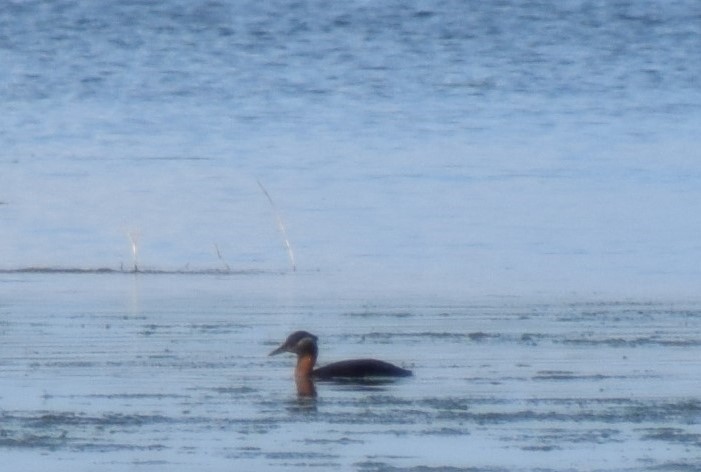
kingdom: Animalia
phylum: Chordata
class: Aves
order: Podicipediformes
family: Podicipedidae
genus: Podiceps
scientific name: Podiceps grisegena
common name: Red-necked grebe
